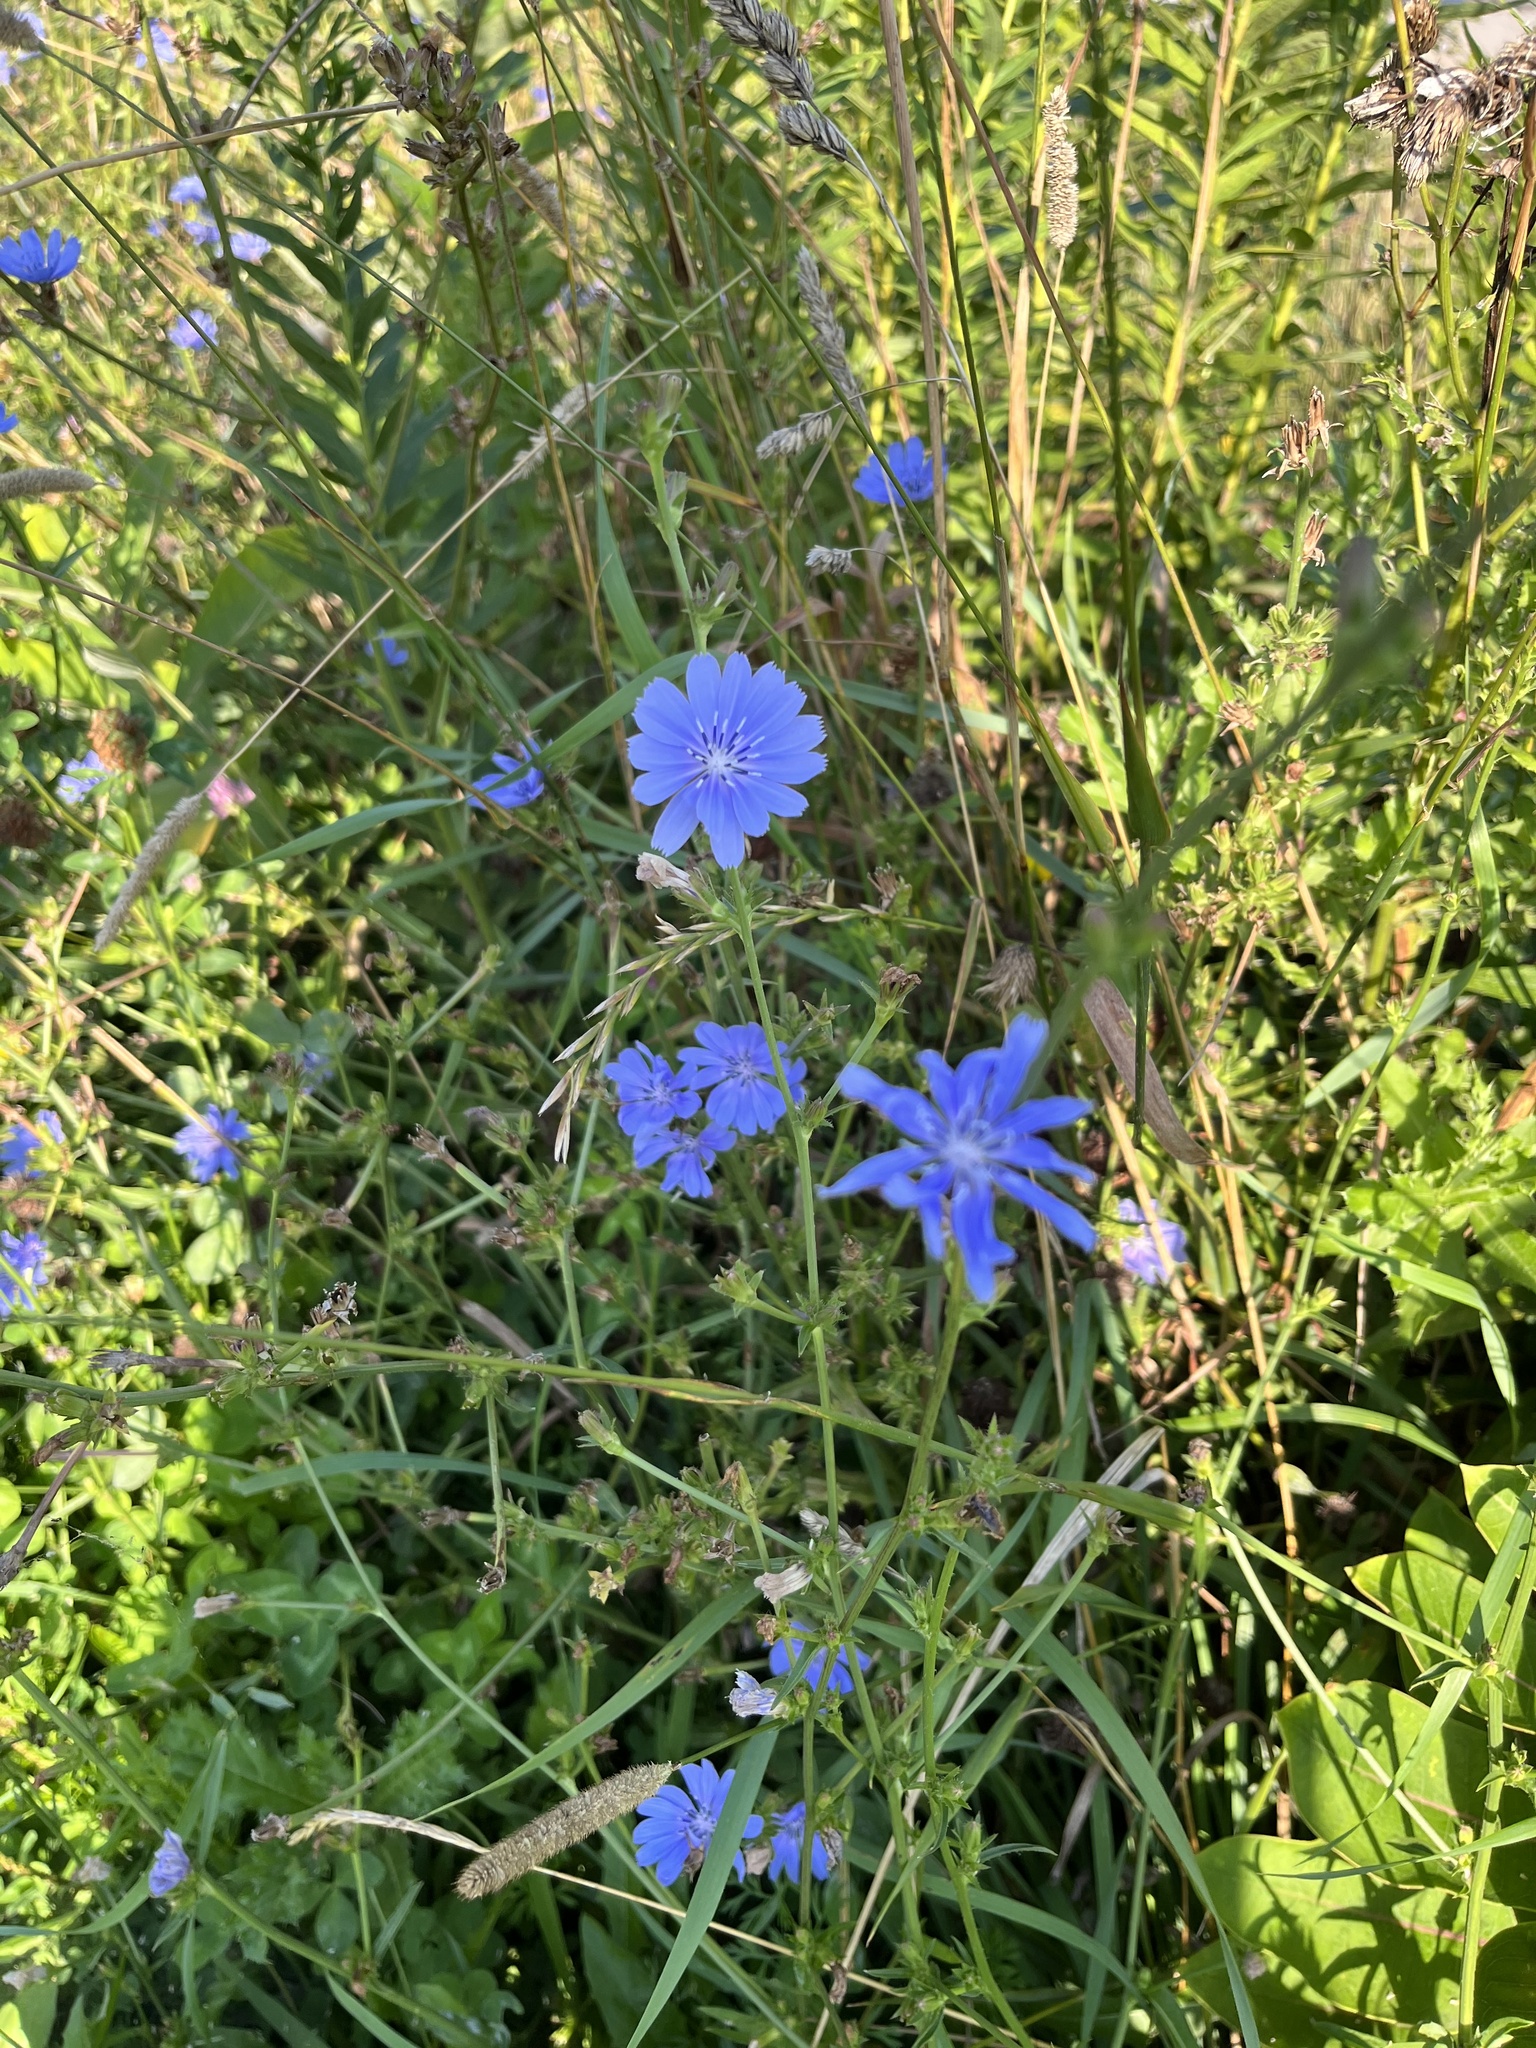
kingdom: Plantae
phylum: Tracheophyta
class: Magnoliopsida
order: Asterales
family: Asteraceae
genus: Cichorium
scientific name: Cichorium intybus
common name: Chicory
